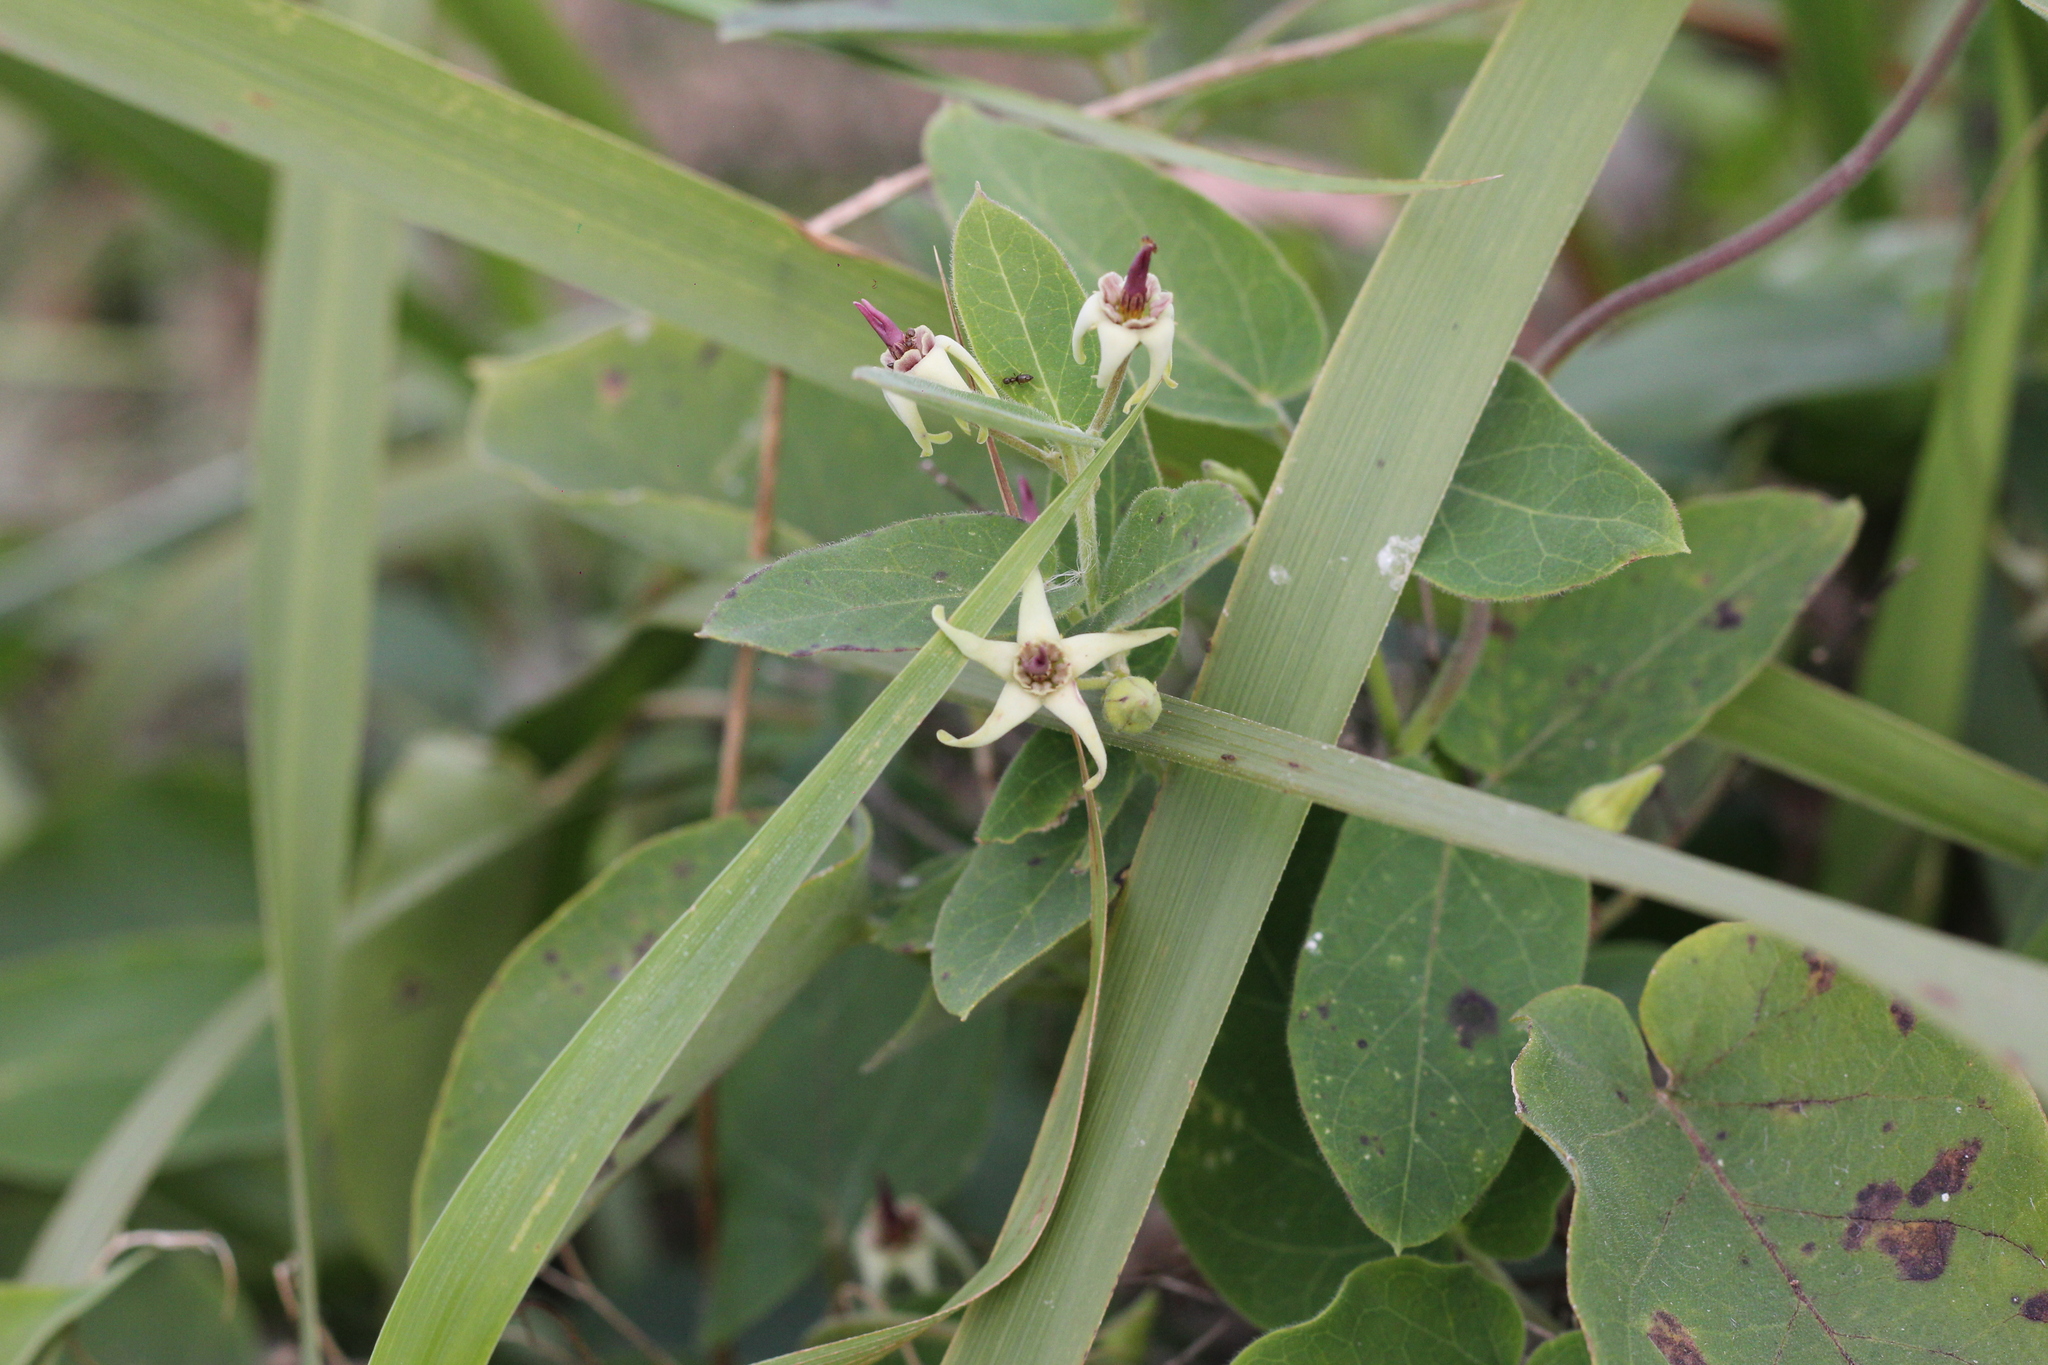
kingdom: Plantae
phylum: Tracheophyta
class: Magnoliopsida
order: Gentianales
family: Apocynaceae
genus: Oxypetalum
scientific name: Oxypetalum balansae
